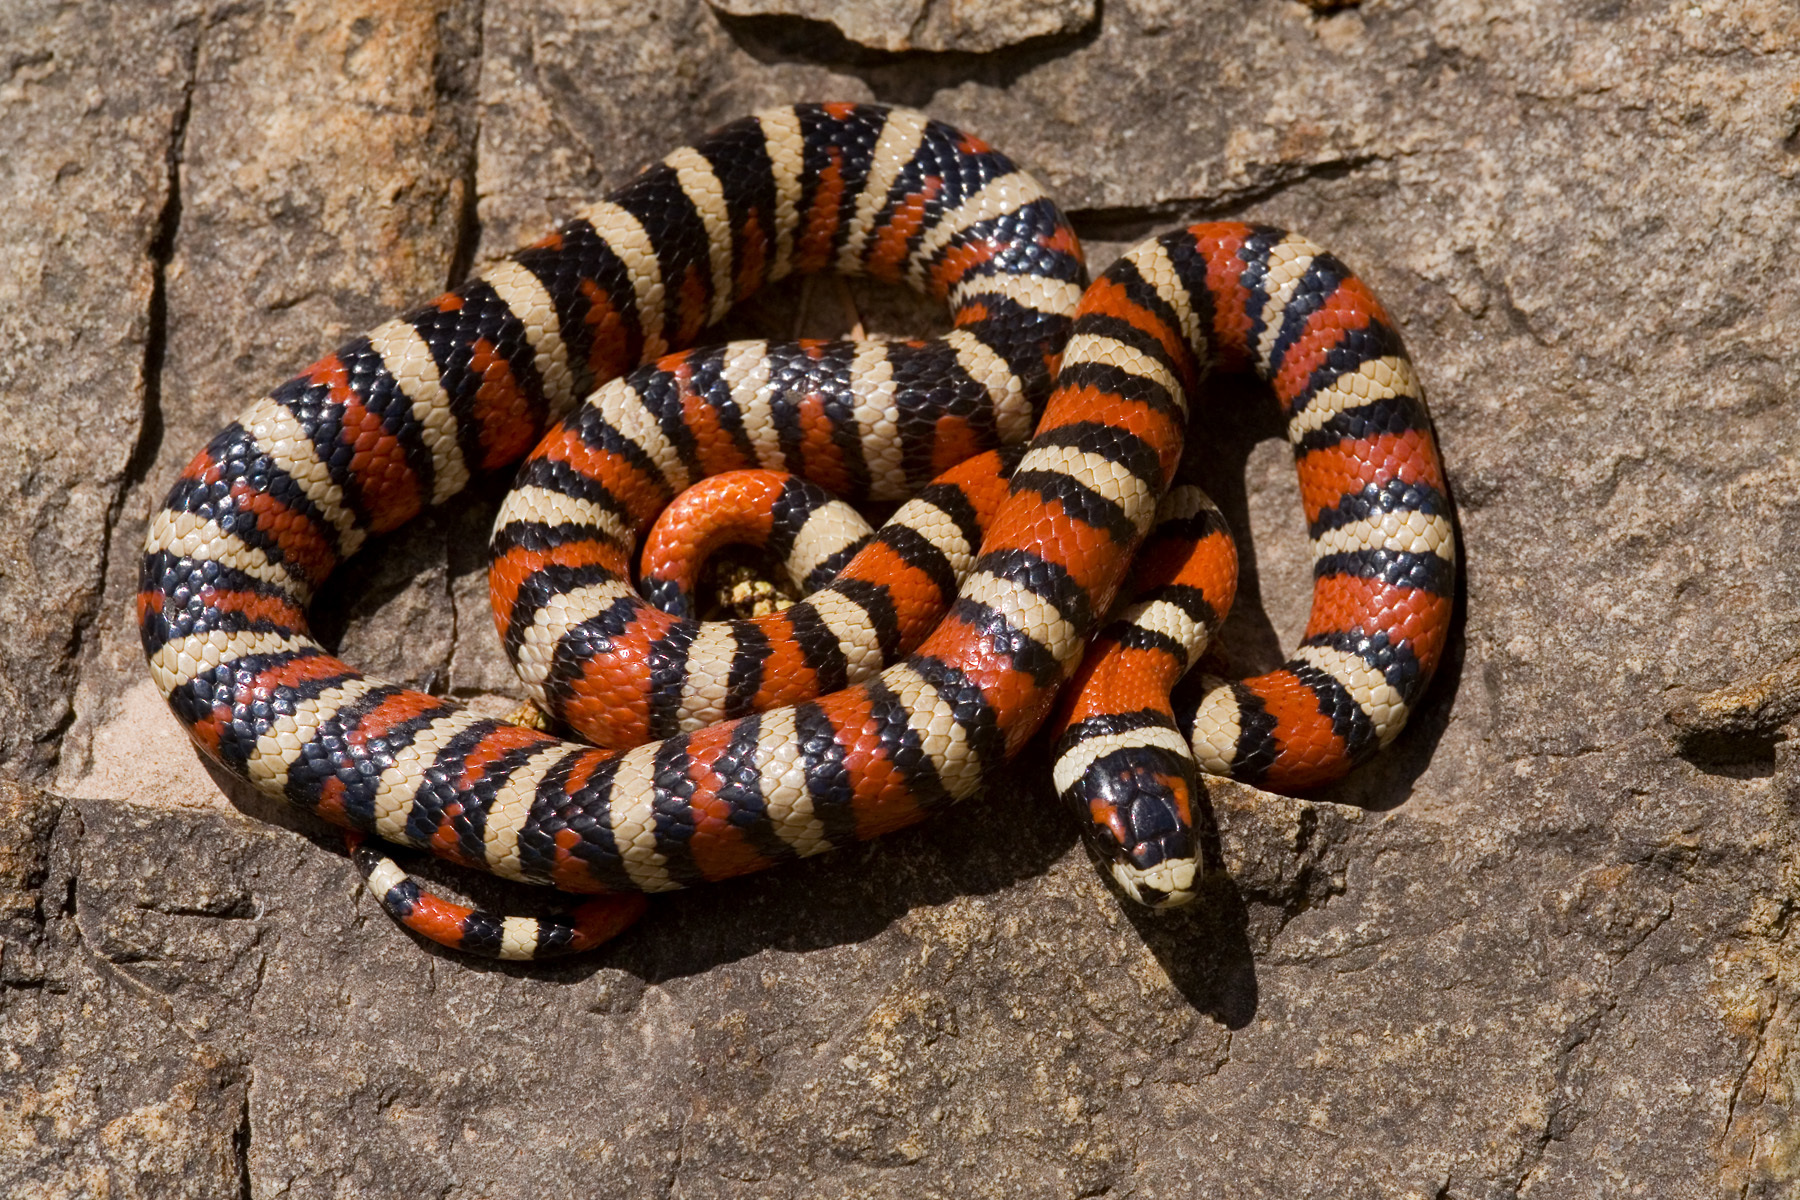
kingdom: Animalia
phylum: Chordata
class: Squamata
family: Colubridae
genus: Lampropeltis
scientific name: Lampropeltis pyromelana
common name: Sonoran mountain kingsnake
